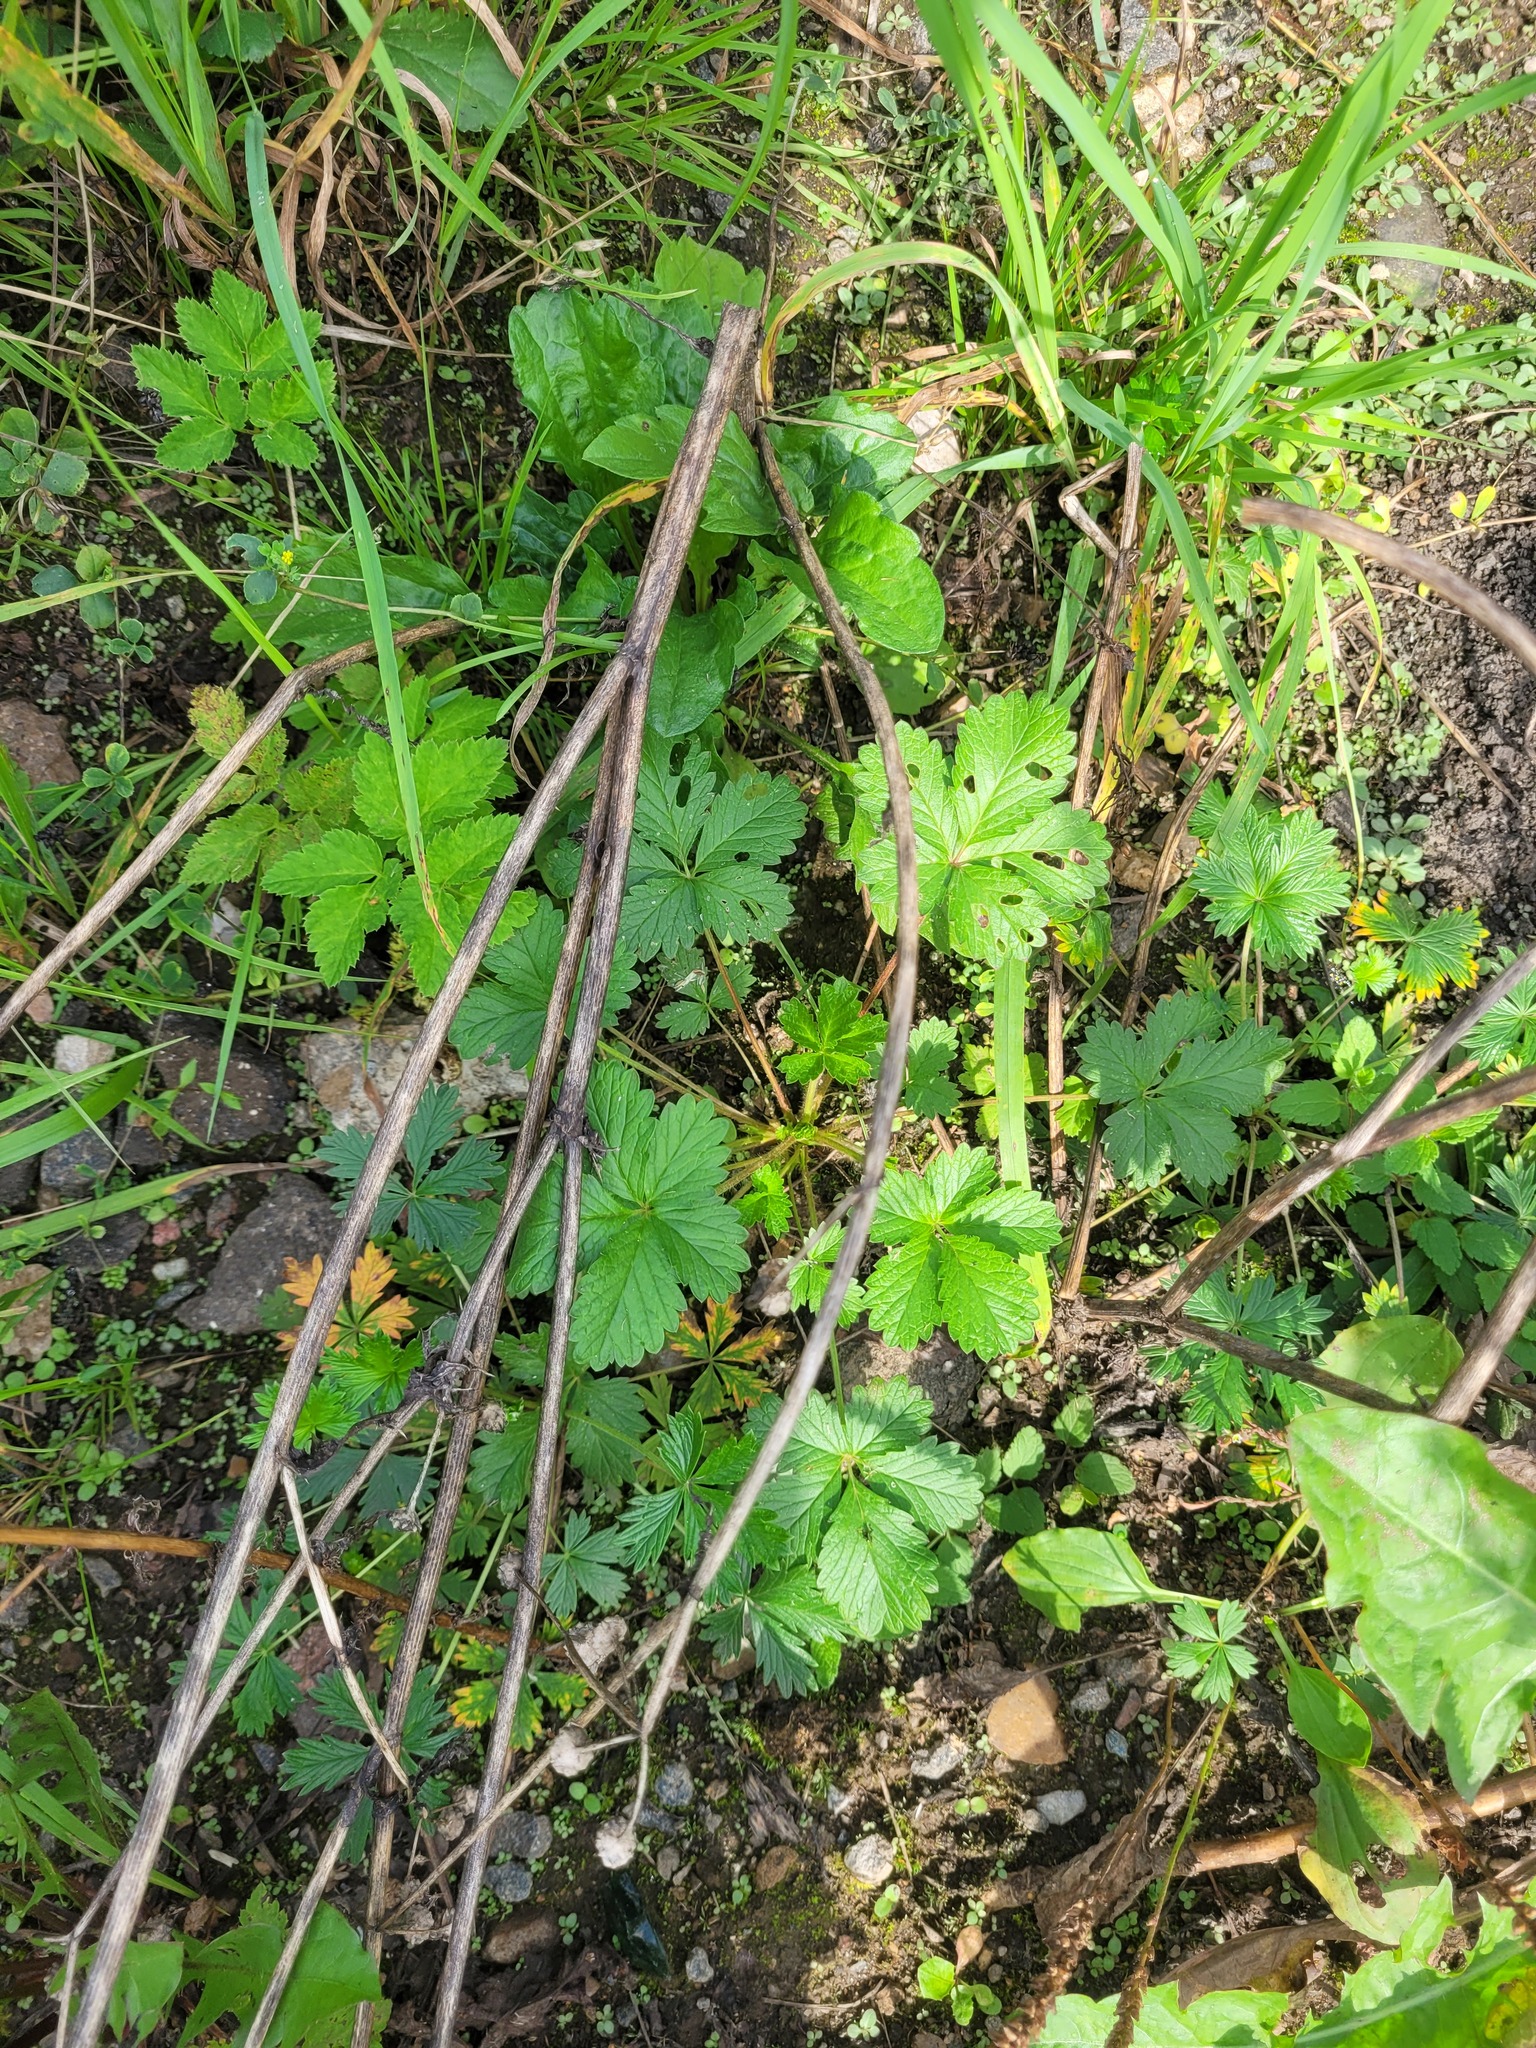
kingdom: Plantae
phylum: Tracheophyta
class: Magnoliopsida
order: Rosales
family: Rosaceae
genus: Potentilla
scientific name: Potentilla intermedia
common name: Downy cinquefoil
